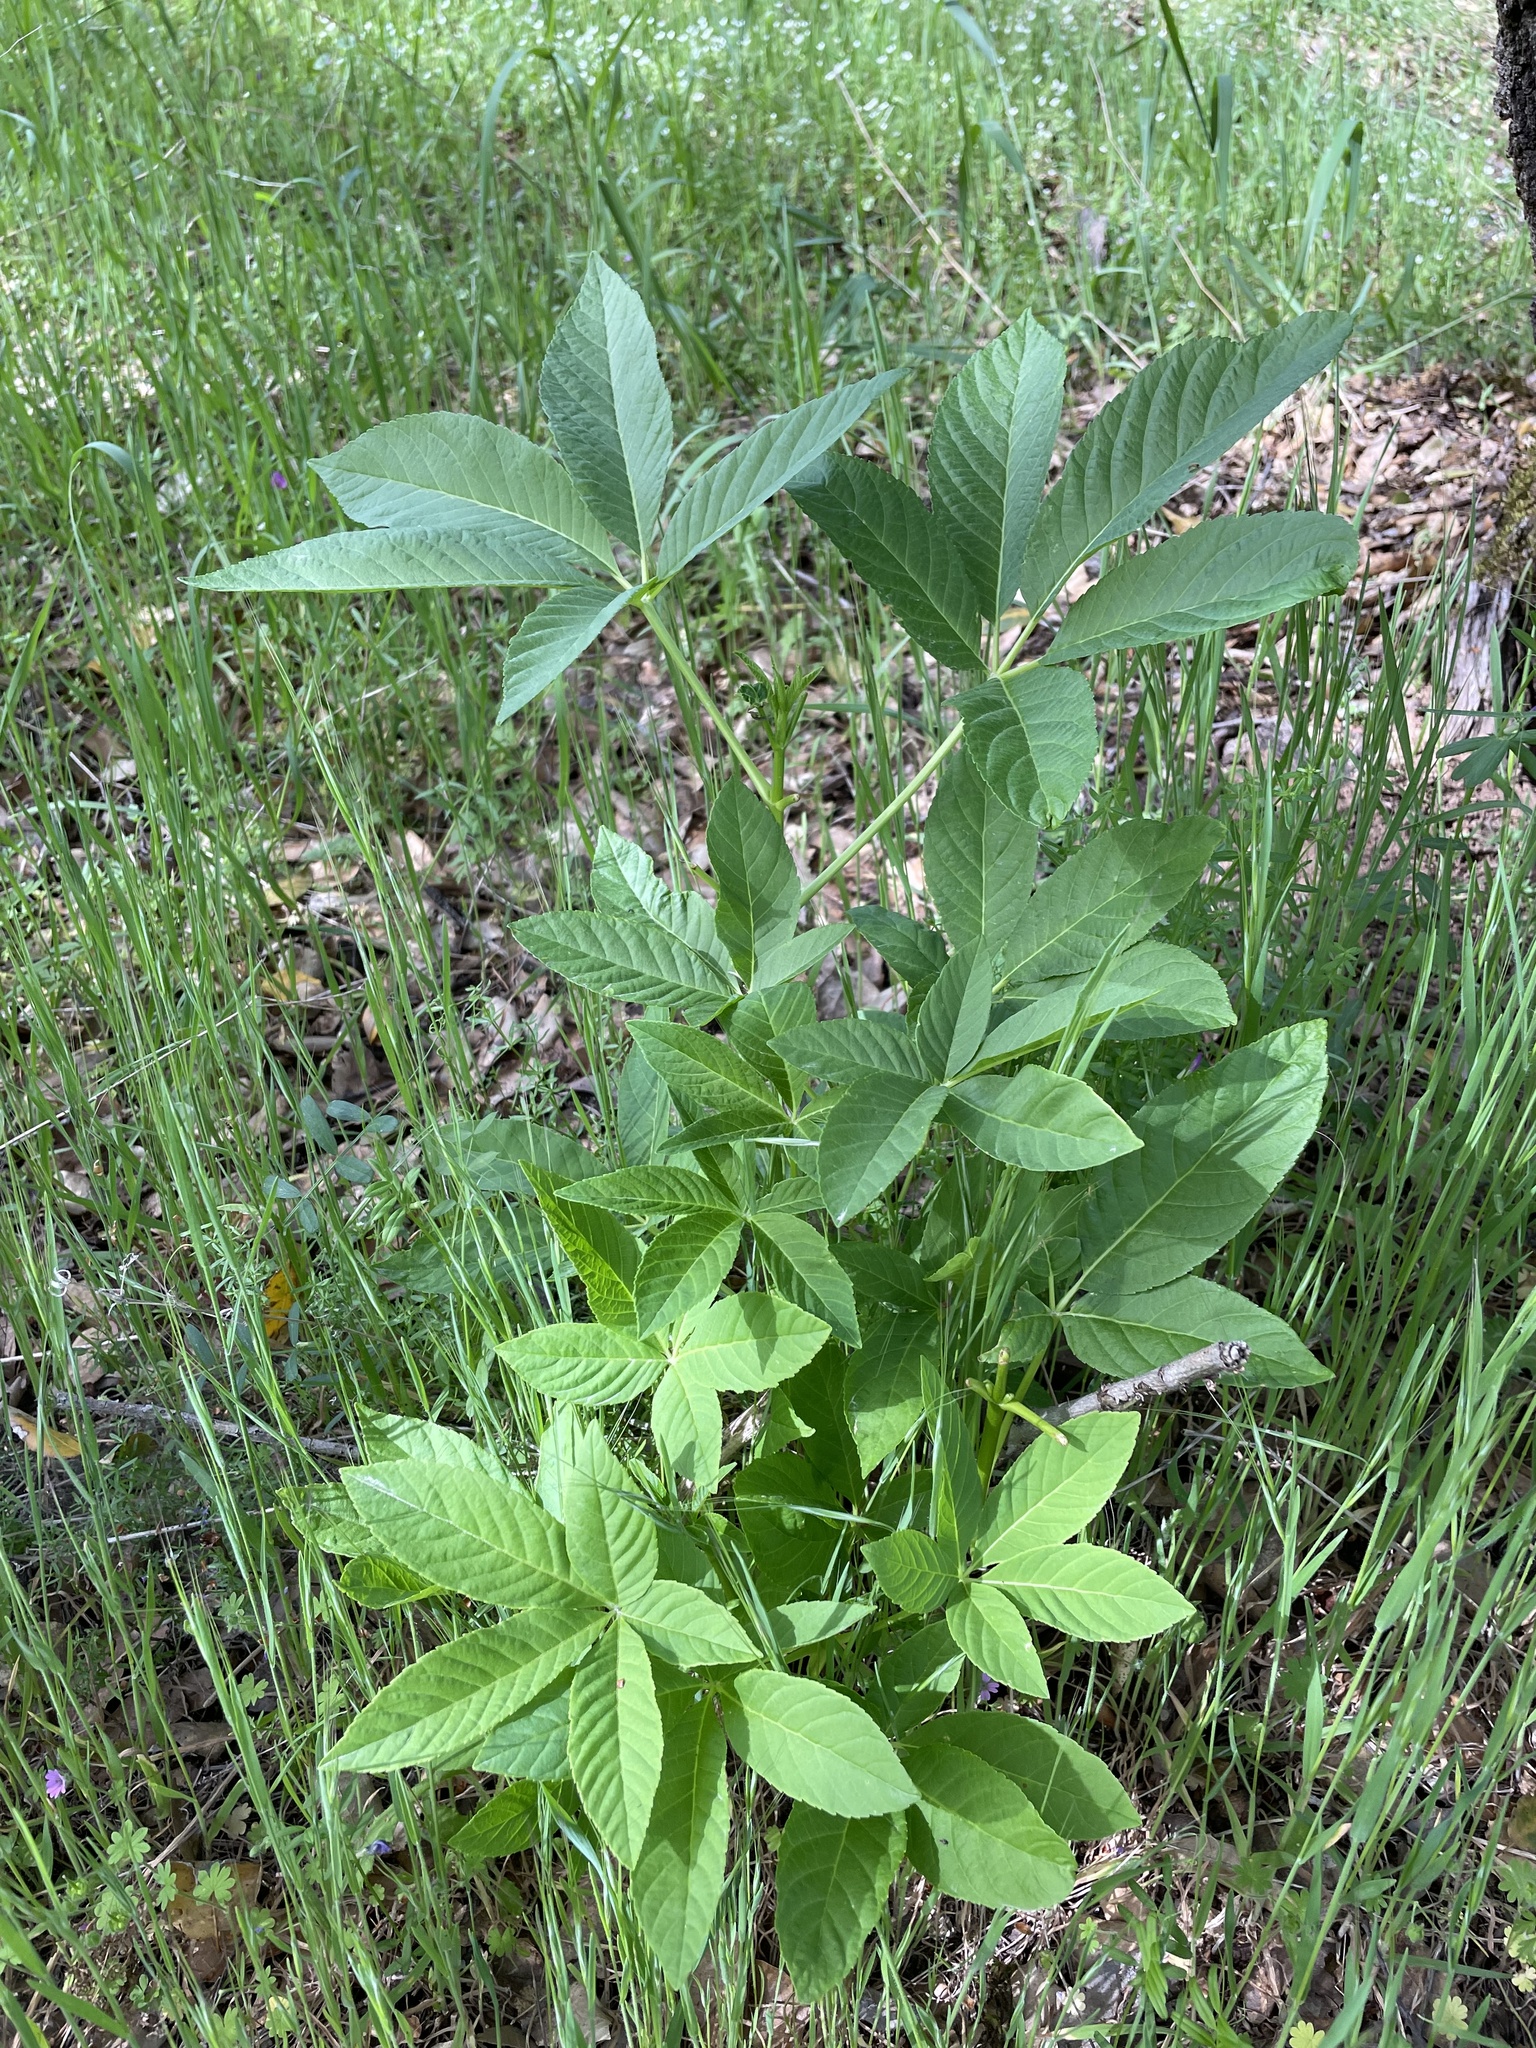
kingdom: Plantae
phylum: Tracheophyta
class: Magnoliopsida
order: Sapindales
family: Sapindaceae
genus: Aesculus
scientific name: Aesculus californica
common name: California buckeye
